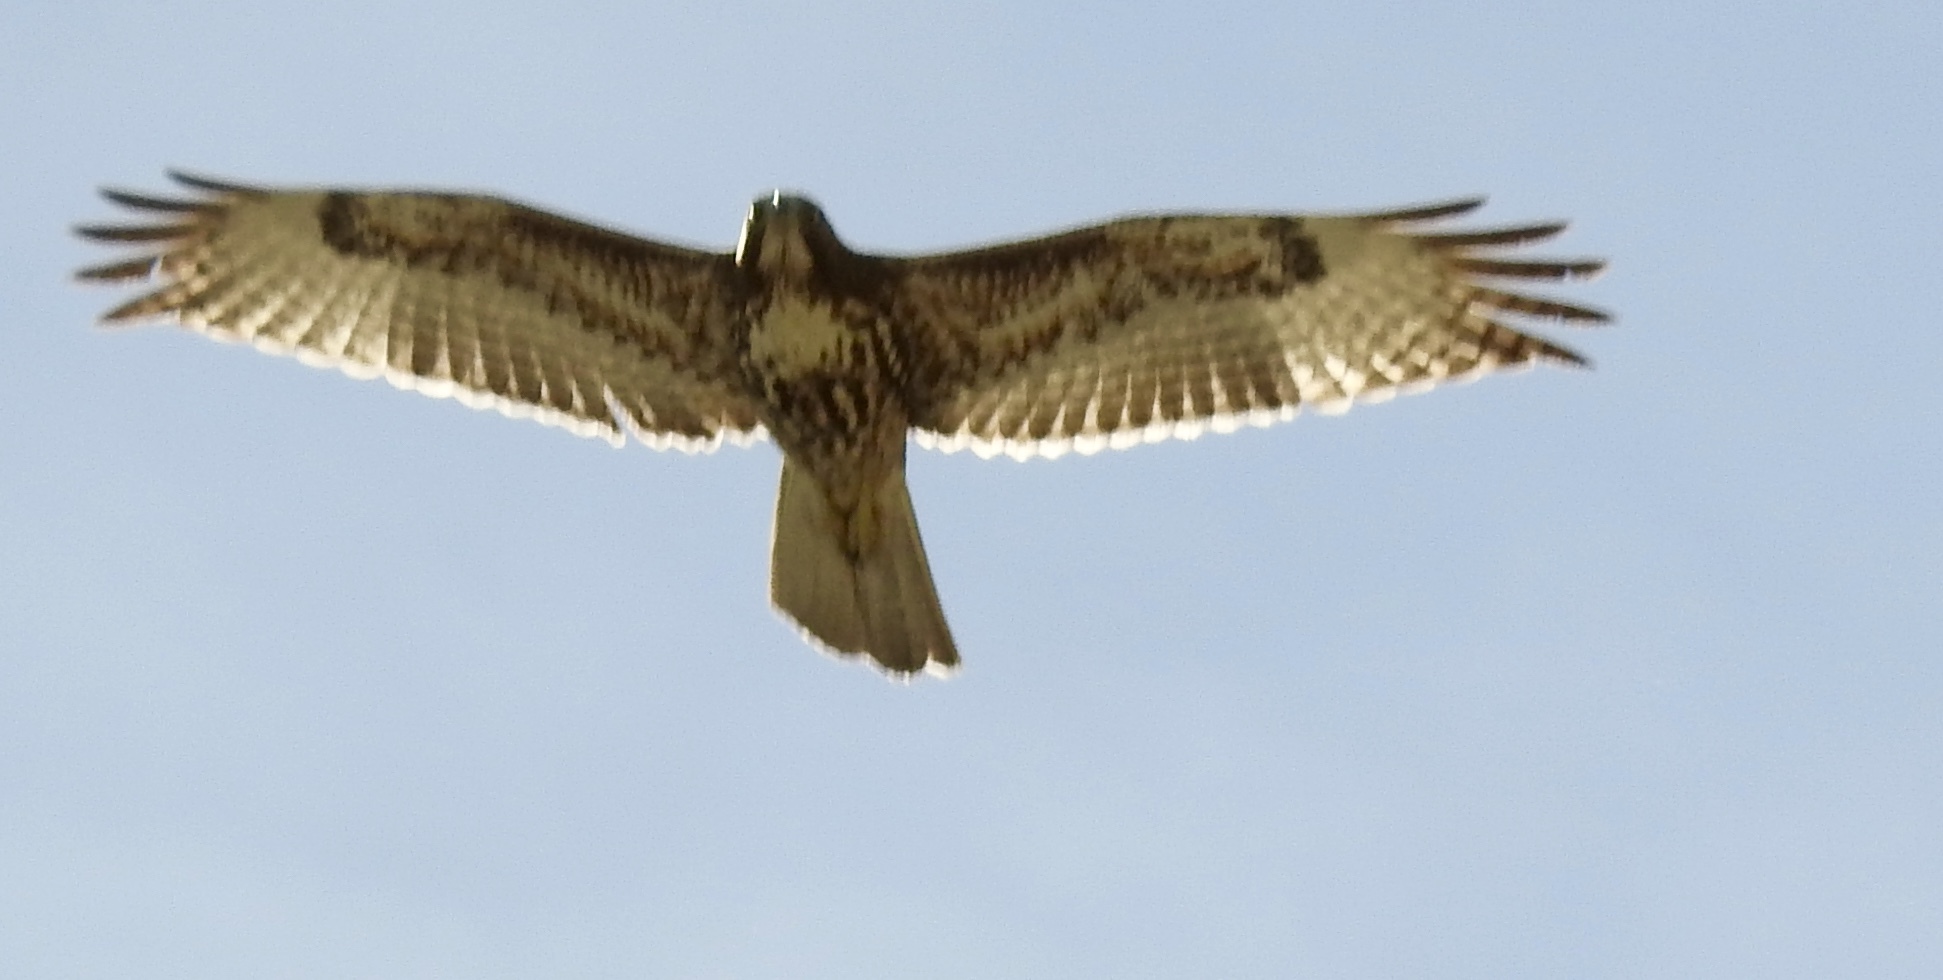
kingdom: Animalia
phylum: Chordata
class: Aves
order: Accipitriformes
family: Accipitridae
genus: Buteo
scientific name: Buteo jamaicensis
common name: Red-tailed hawk
